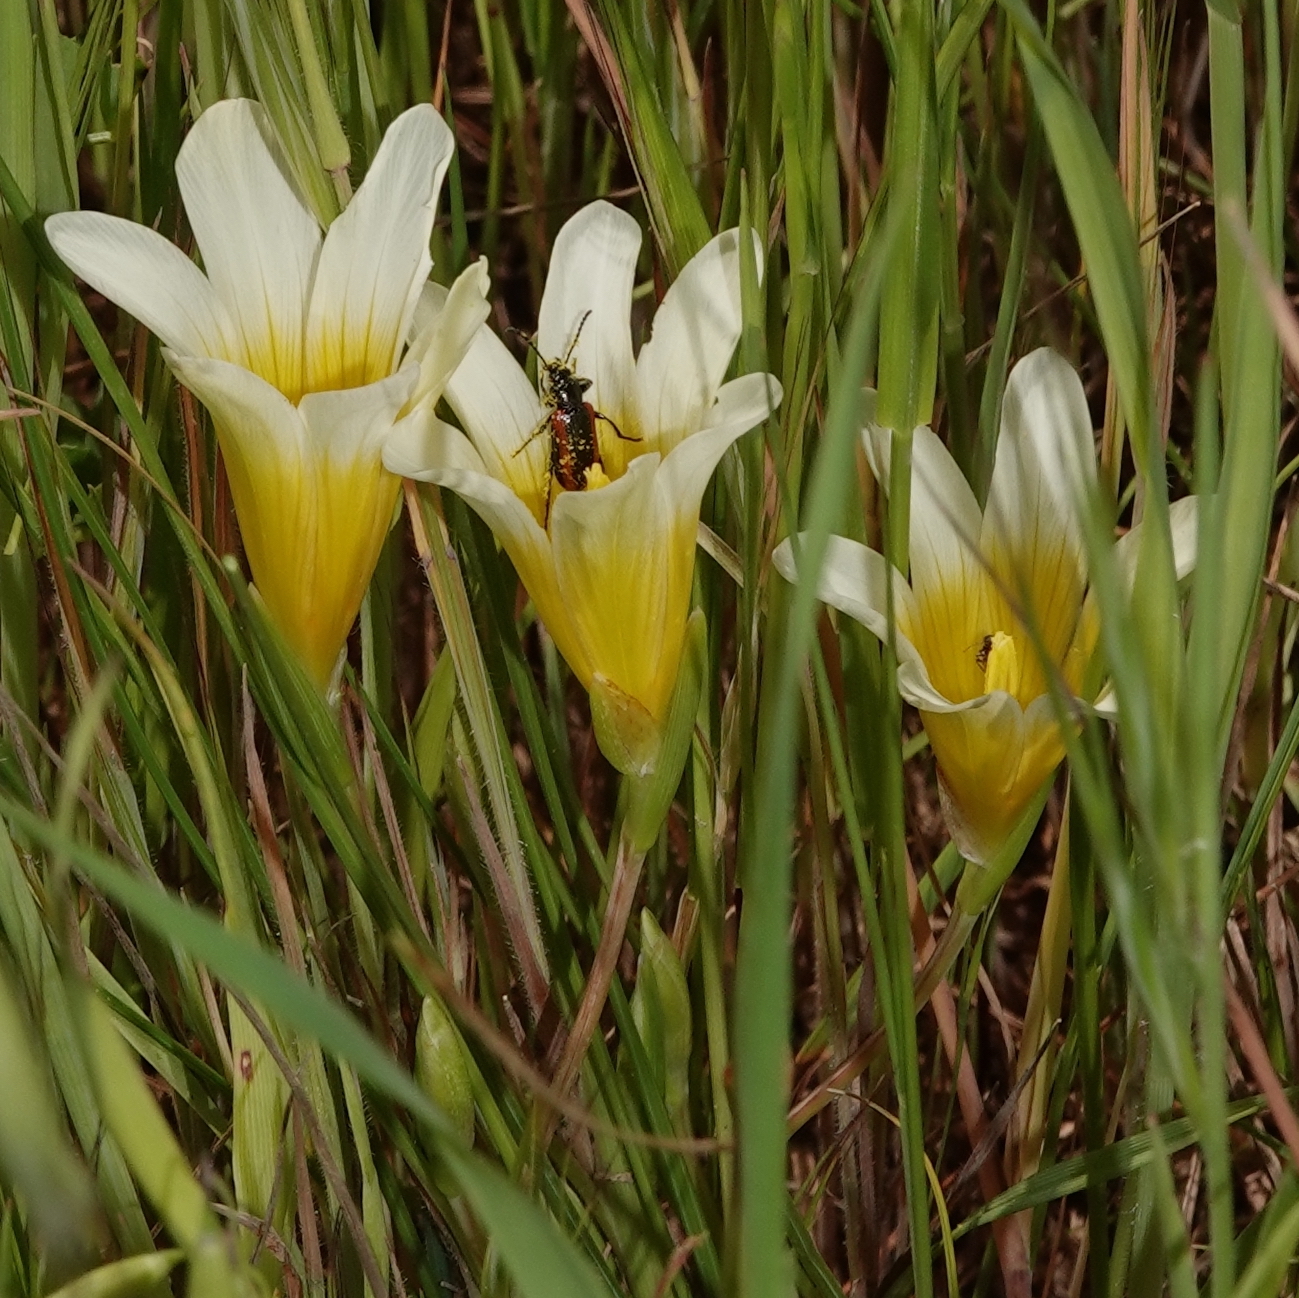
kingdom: Plantae
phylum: Tracheophyta
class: Liliopsida
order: Asparagales
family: Iridaceae
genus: Romulea
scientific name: Romulea leipoldtii
